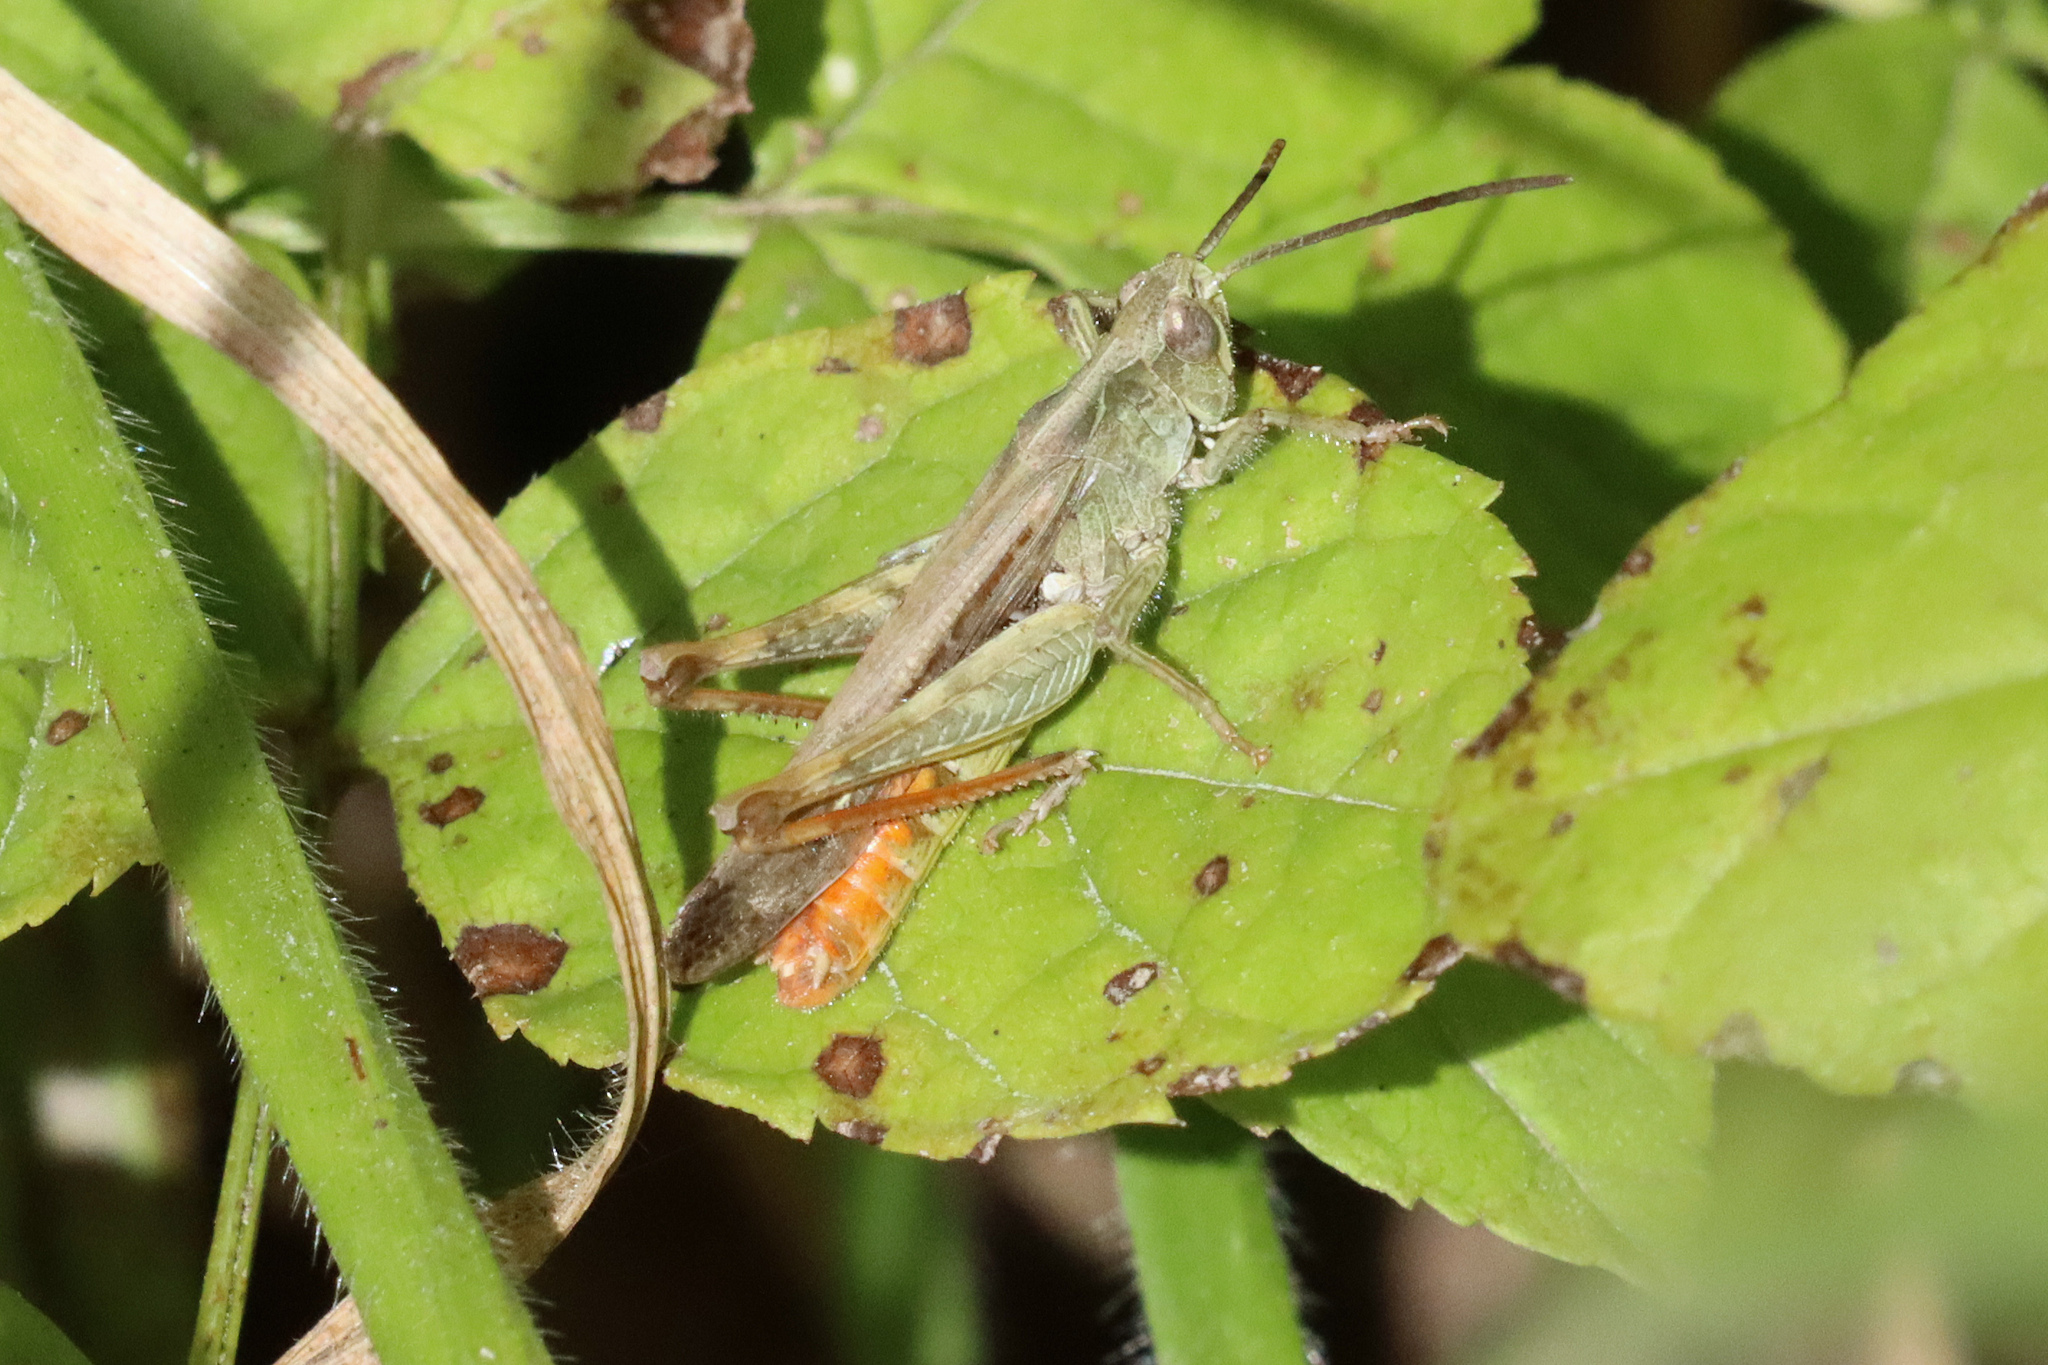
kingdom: Animalia
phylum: Arthropoda
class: Insecta
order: Orthoptera
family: Acrididae
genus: Chorthippus
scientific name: Chorthippus brunneus
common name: Field grasshopper
